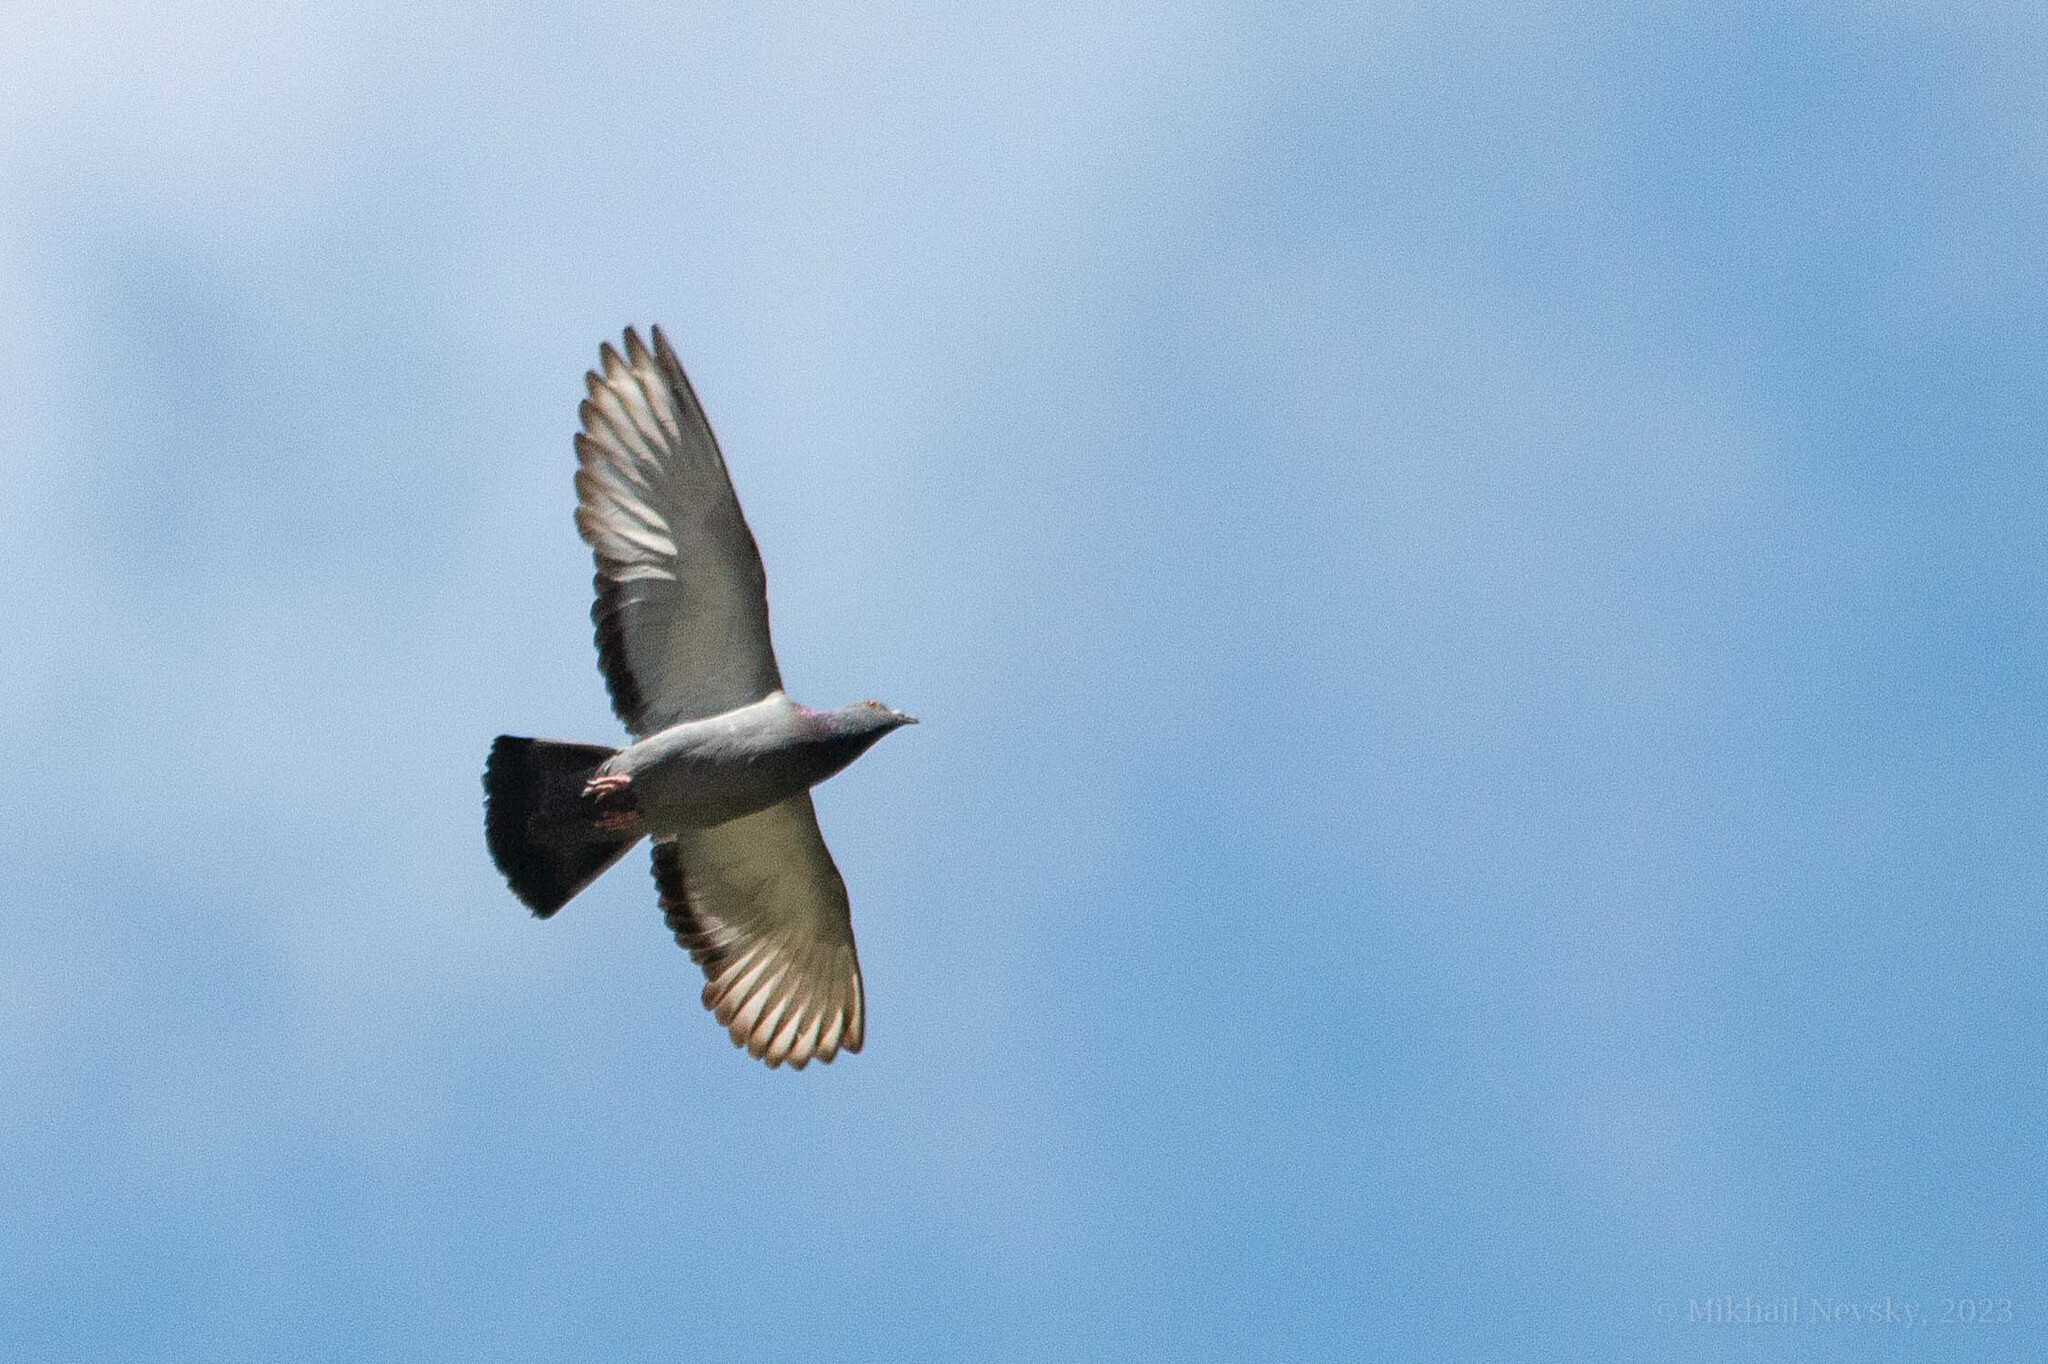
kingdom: Animalia
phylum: Chordata
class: Aves
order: Columbiformes
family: Columbidae
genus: Columba
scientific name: Columba livia
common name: Rock pigeon
